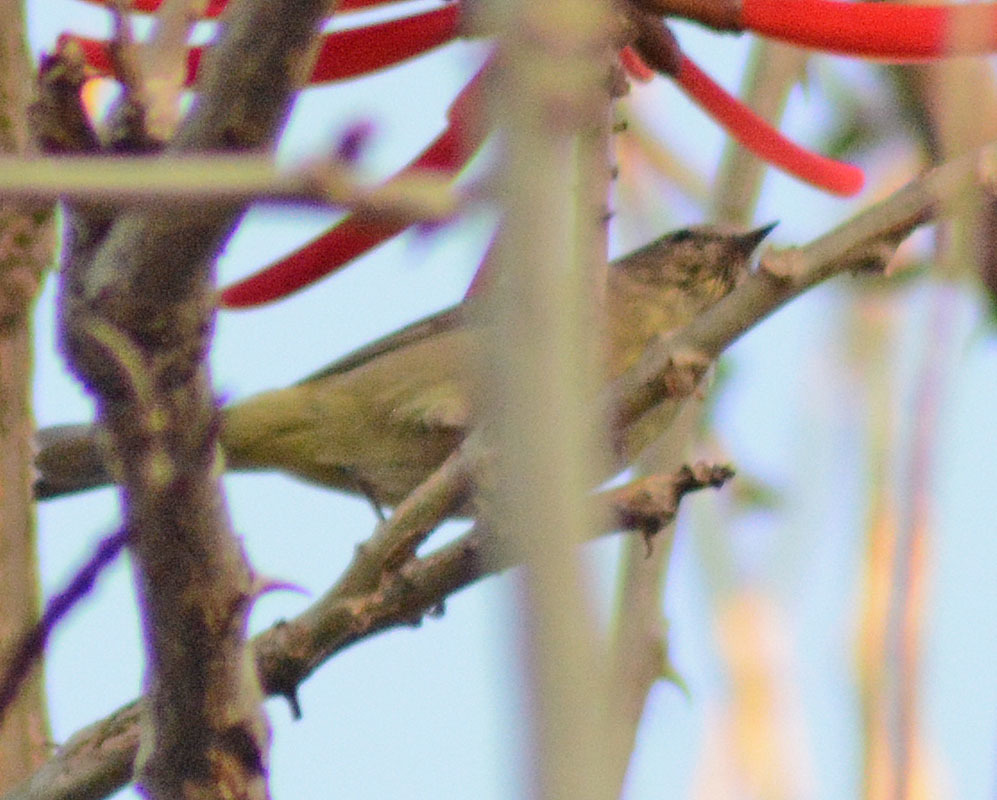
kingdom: Animalia
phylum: Chordata
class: Aves
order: Passeriformes
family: Parulidae
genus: Leiothlypis
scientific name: Leiothlypis celata
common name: Orange-crowned warbler
